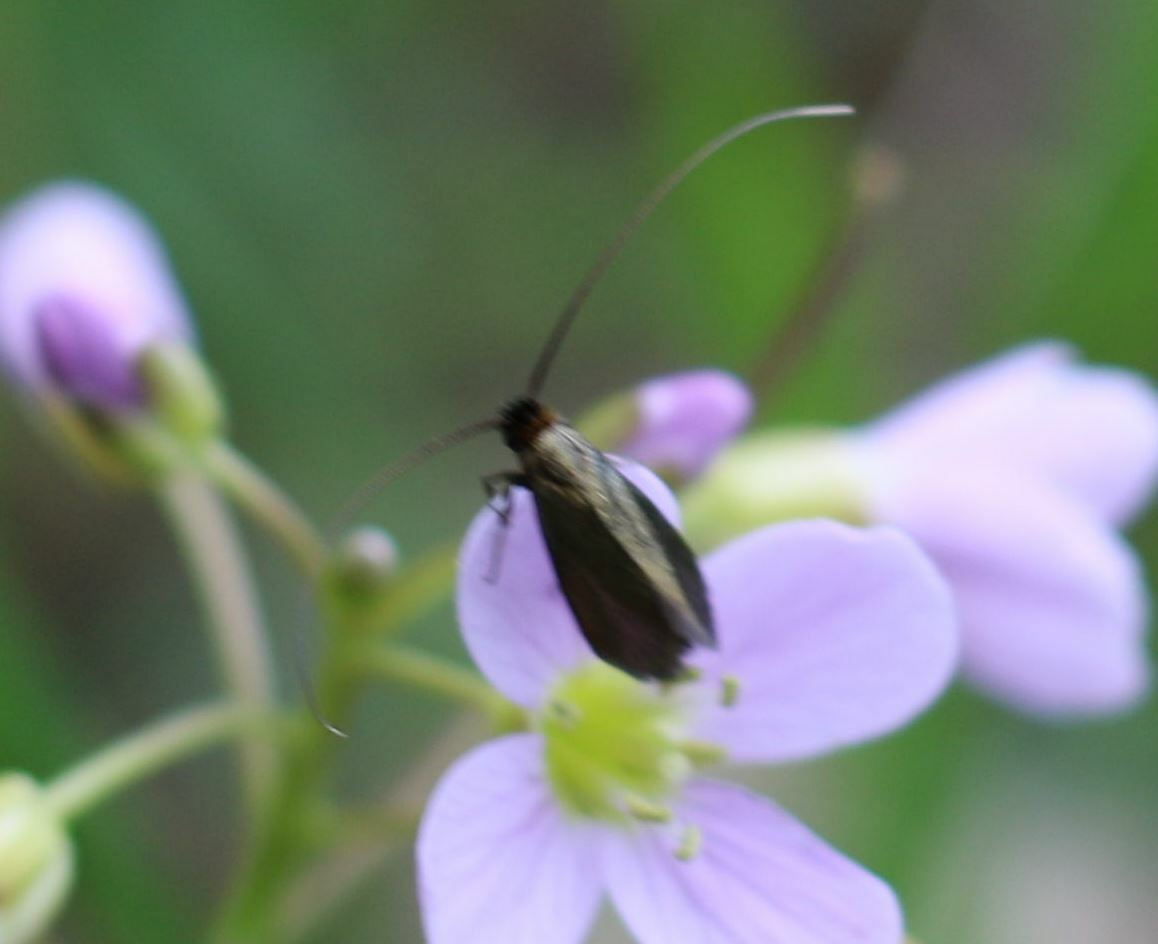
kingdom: Animalia
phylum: Arthropoda
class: Insecta
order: Lepidoptera
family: Adelidae
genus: Cauchas
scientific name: Cauchas rufimitrella
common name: Meadow long-horn
